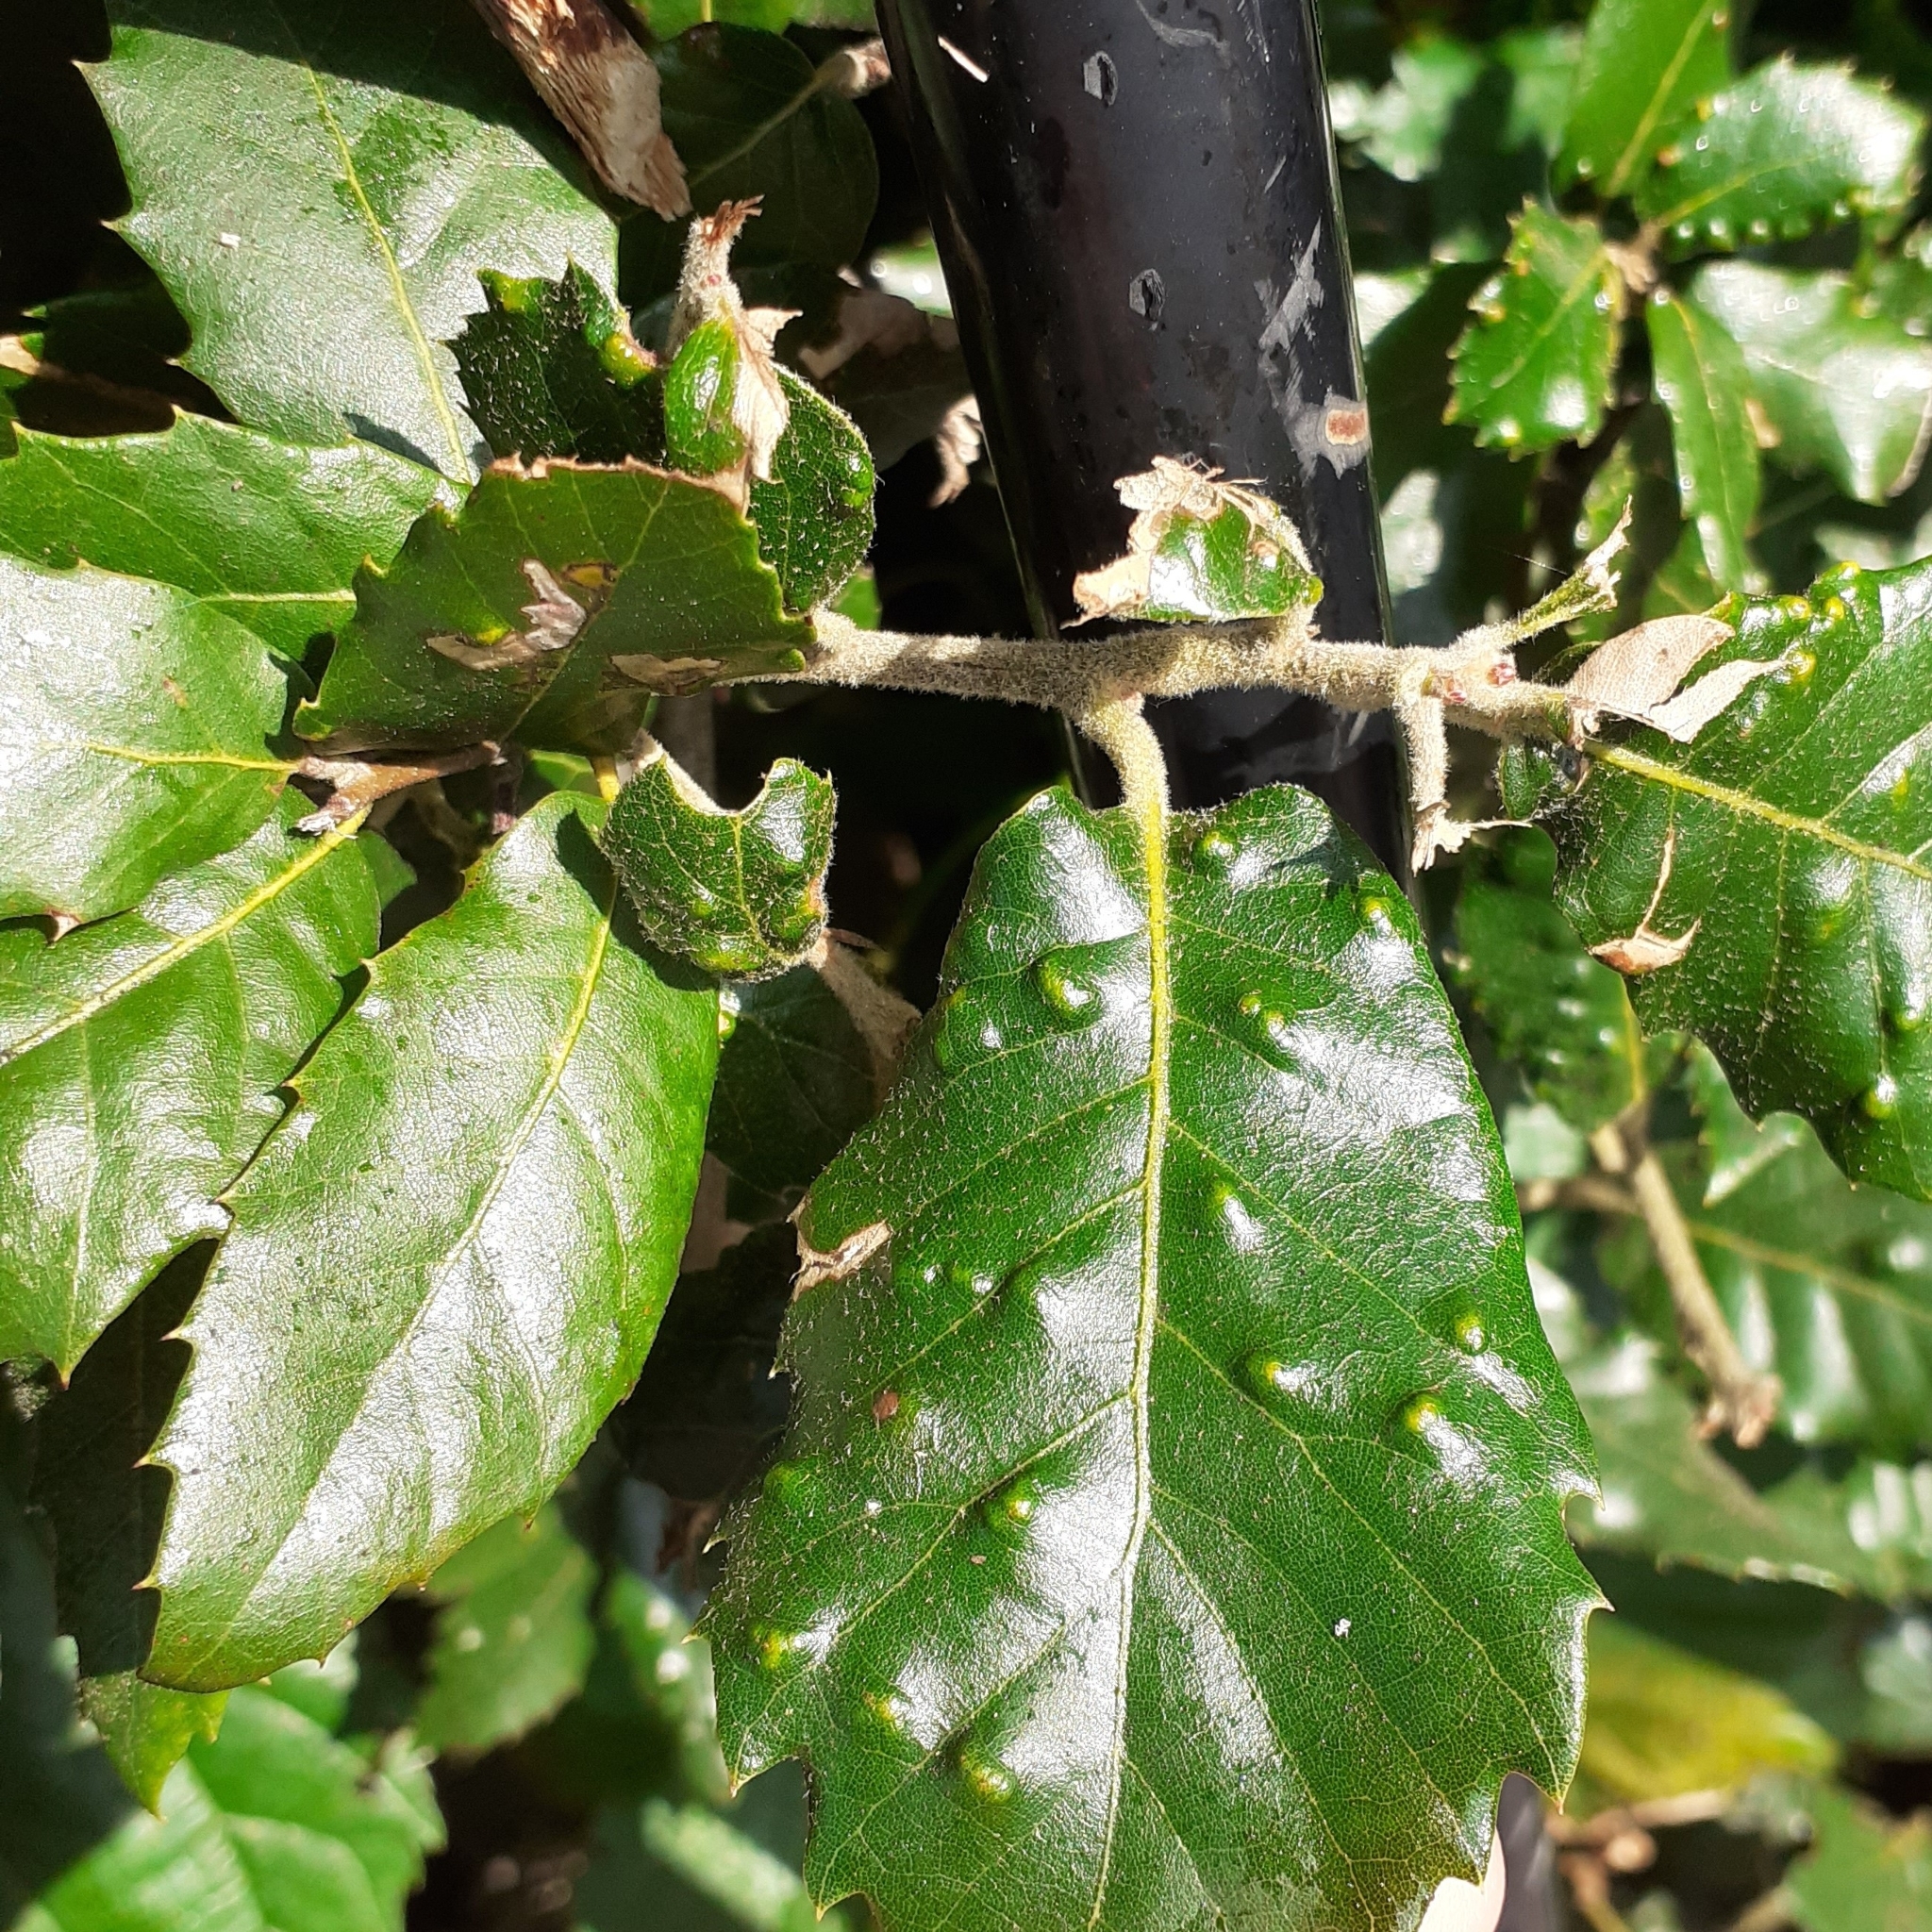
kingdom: Animalia
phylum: Arthropoda
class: Arachnida
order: Trombidiformes
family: Eriophyidae
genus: Aceria
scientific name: Aceria ilicis
